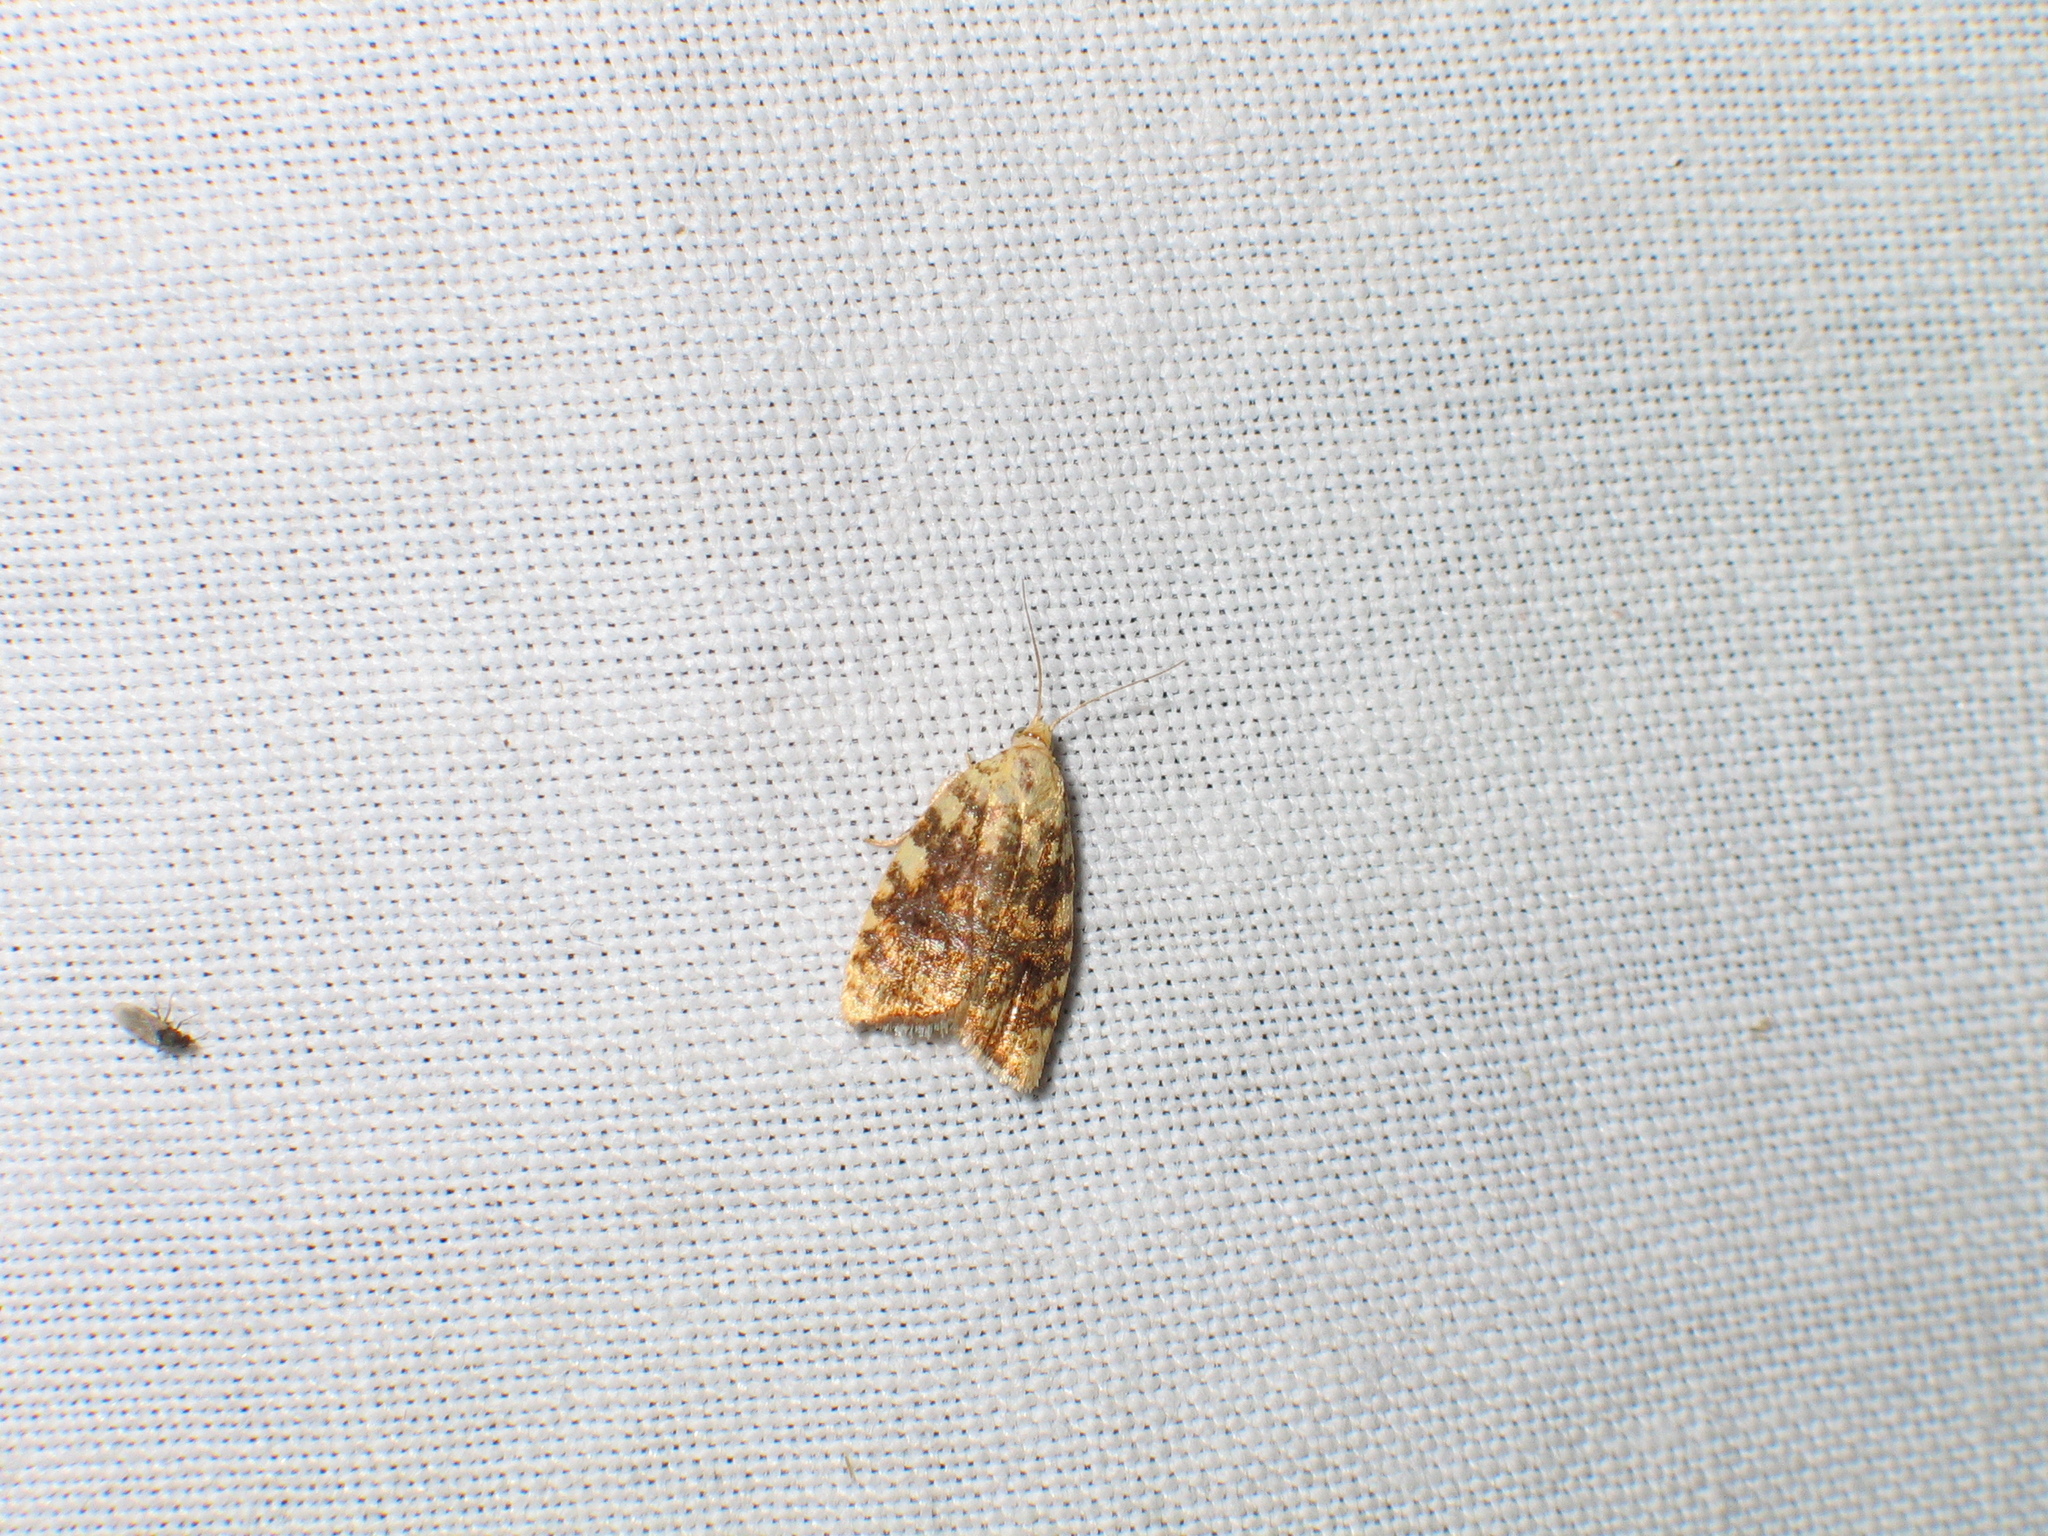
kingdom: Animalia
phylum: Arthropoda
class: Insecta
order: Lepidoptera
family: Tortricidae
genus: Aleimma
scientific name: Aleimma loeflingiana
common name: Yellow oak button
